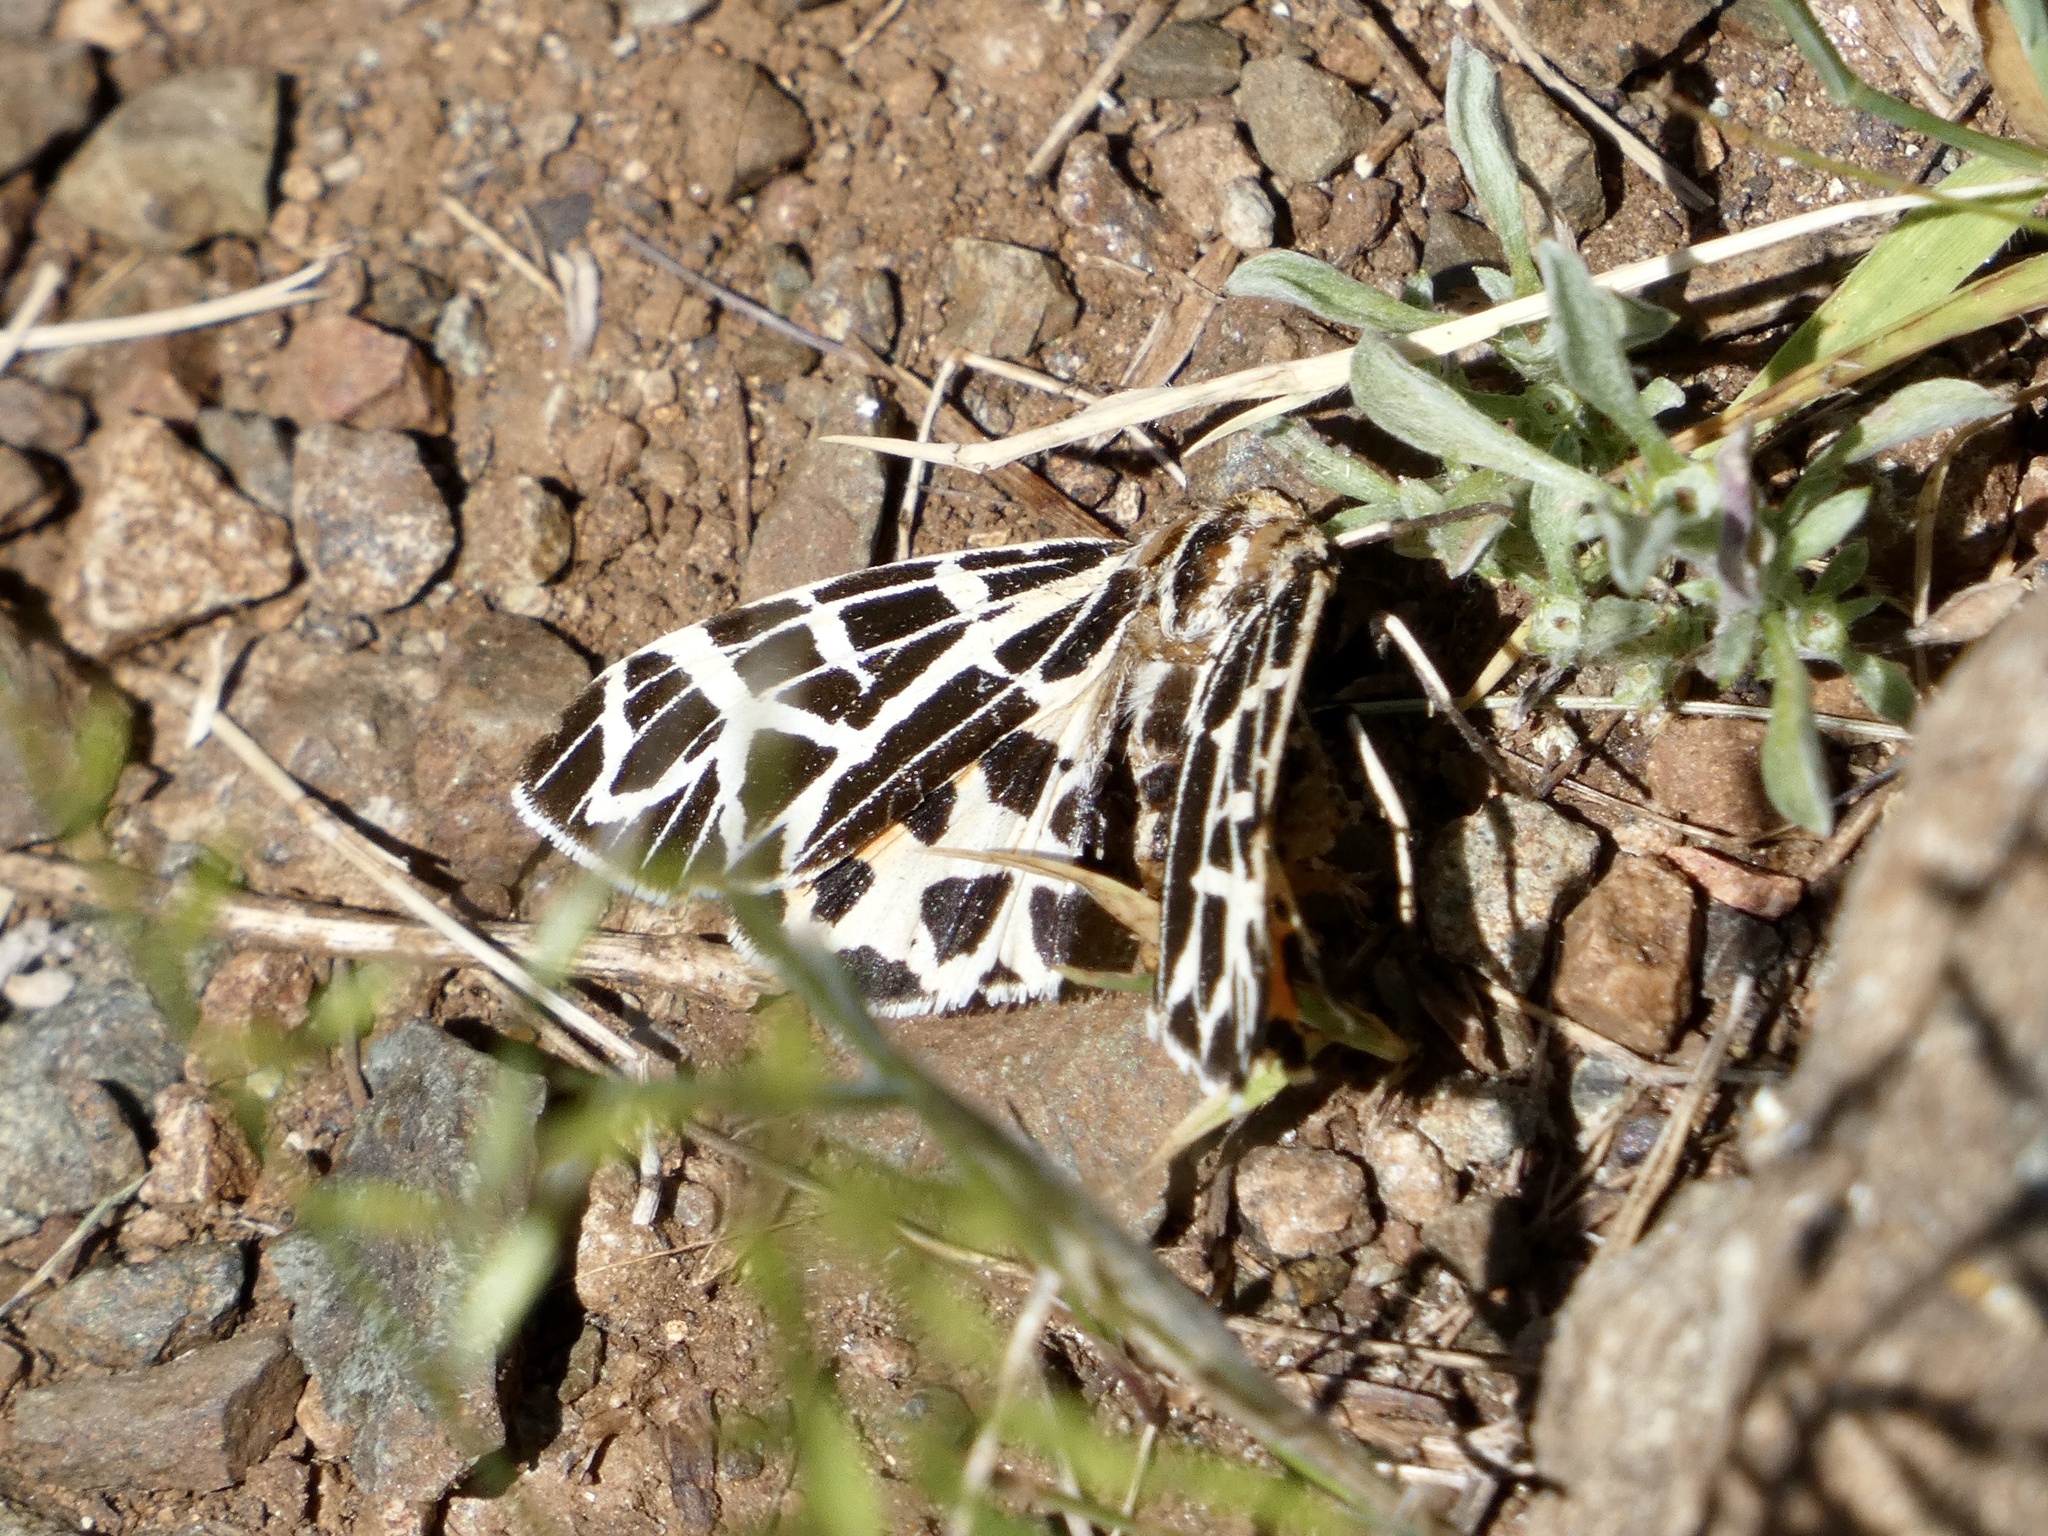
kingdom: Animalia
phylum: Arthropoda
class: Insecta
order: Lepidoptera
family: Erebidae
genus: Apantesis
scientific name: Apantesis
